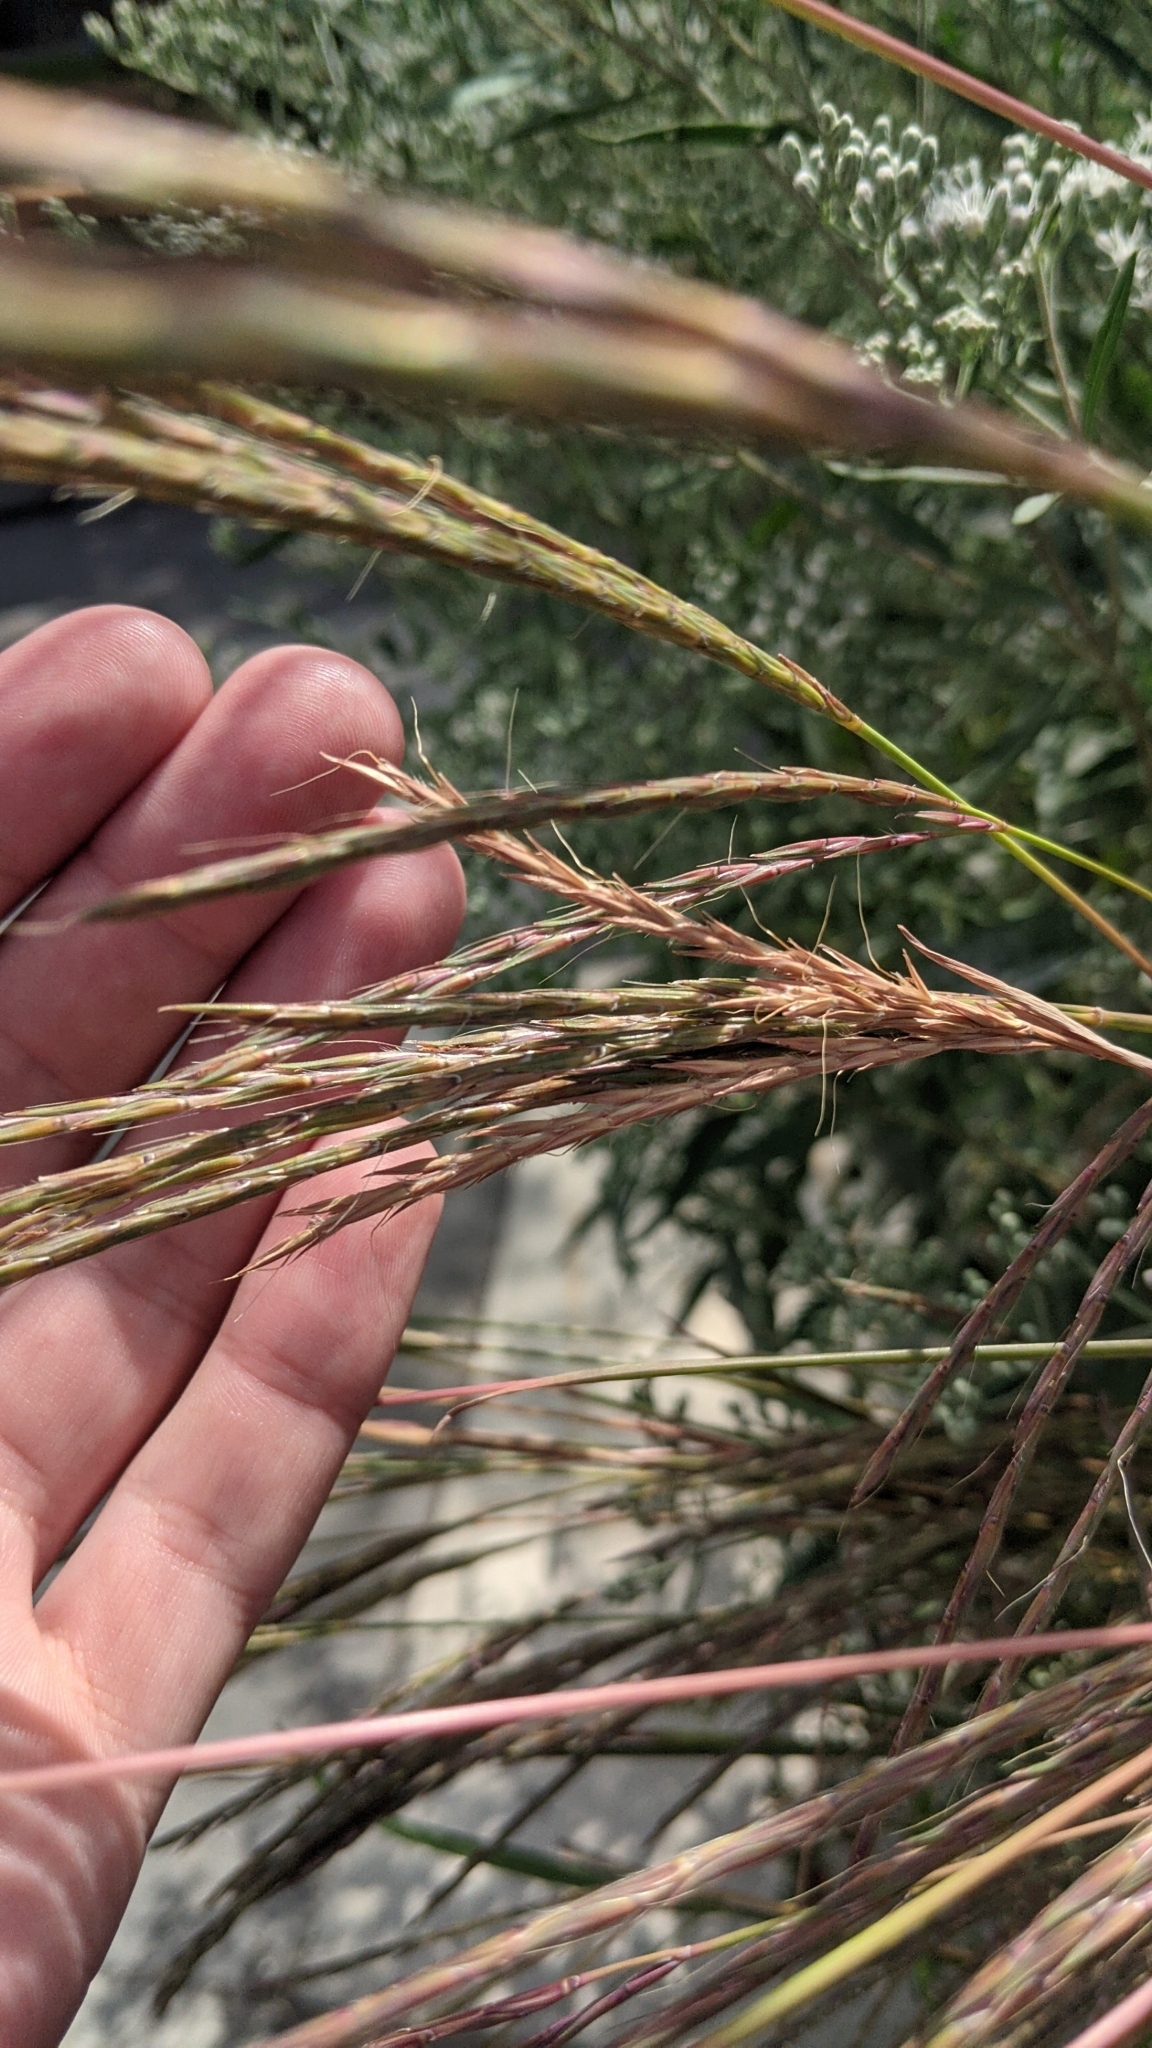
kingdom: Plantae
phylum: Tracheophyta
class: Liliopsida
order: Poales
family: Poaceae
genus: Andropogon
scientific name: Andropogon gerardi
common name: Big bluestem
